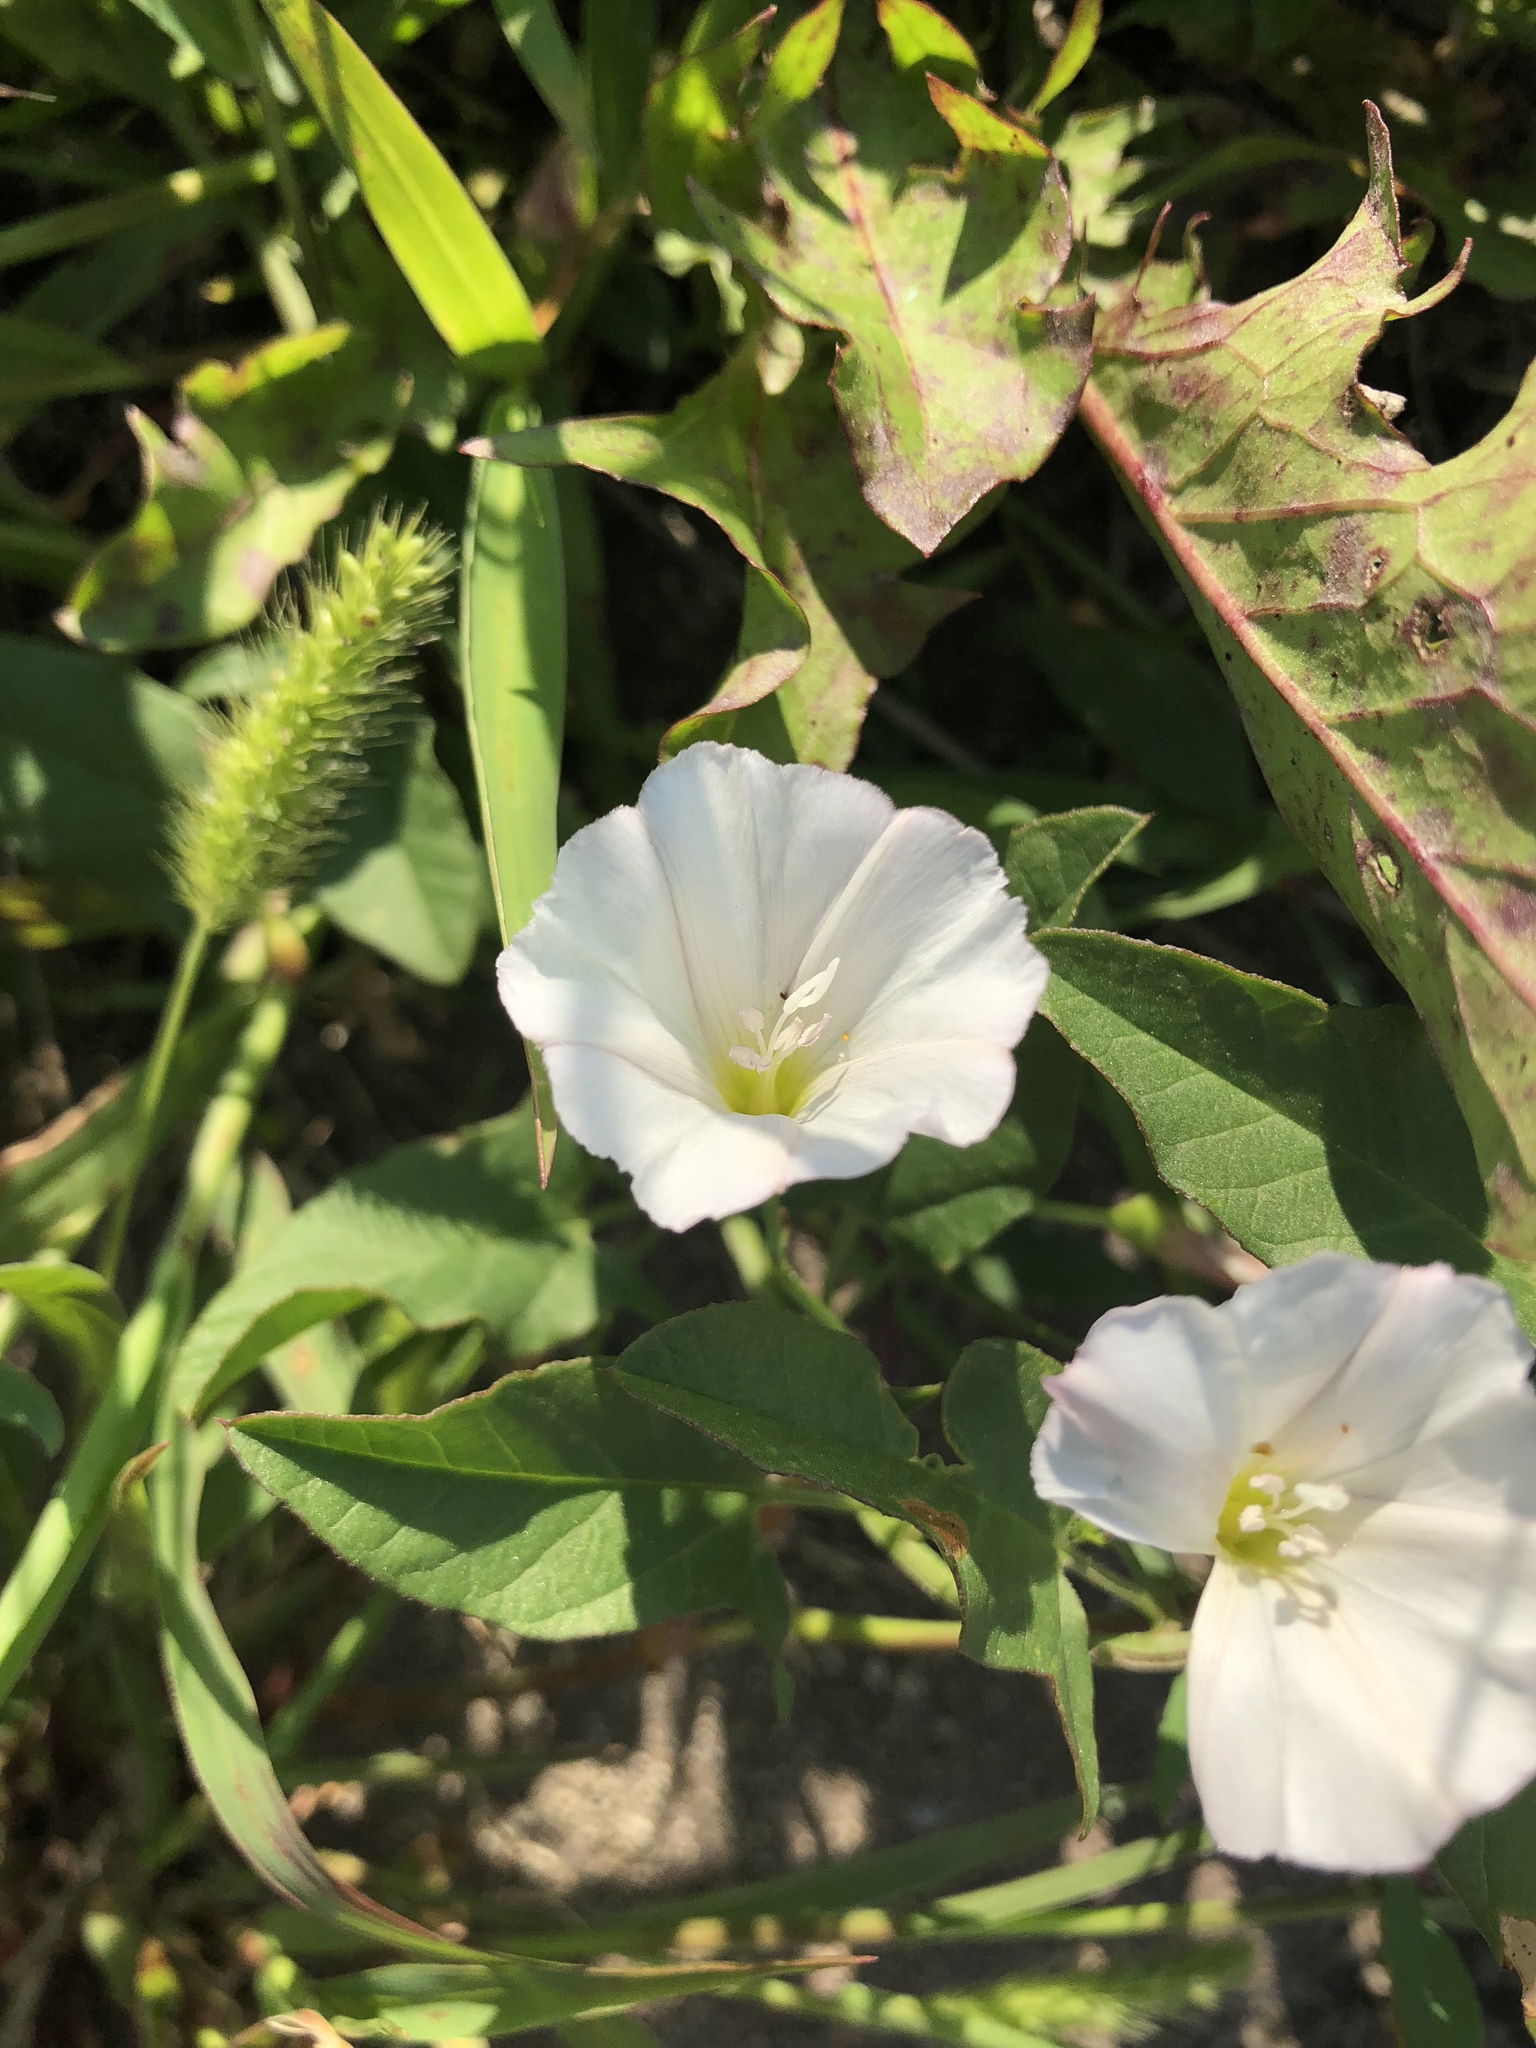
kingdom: Plantae
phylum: Tracheophyta
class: Magnoliopsida
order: Solanales
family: Convolvulaceae
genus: Convolvulus
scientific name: Convolvulus arvensis
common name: Field bindweed
